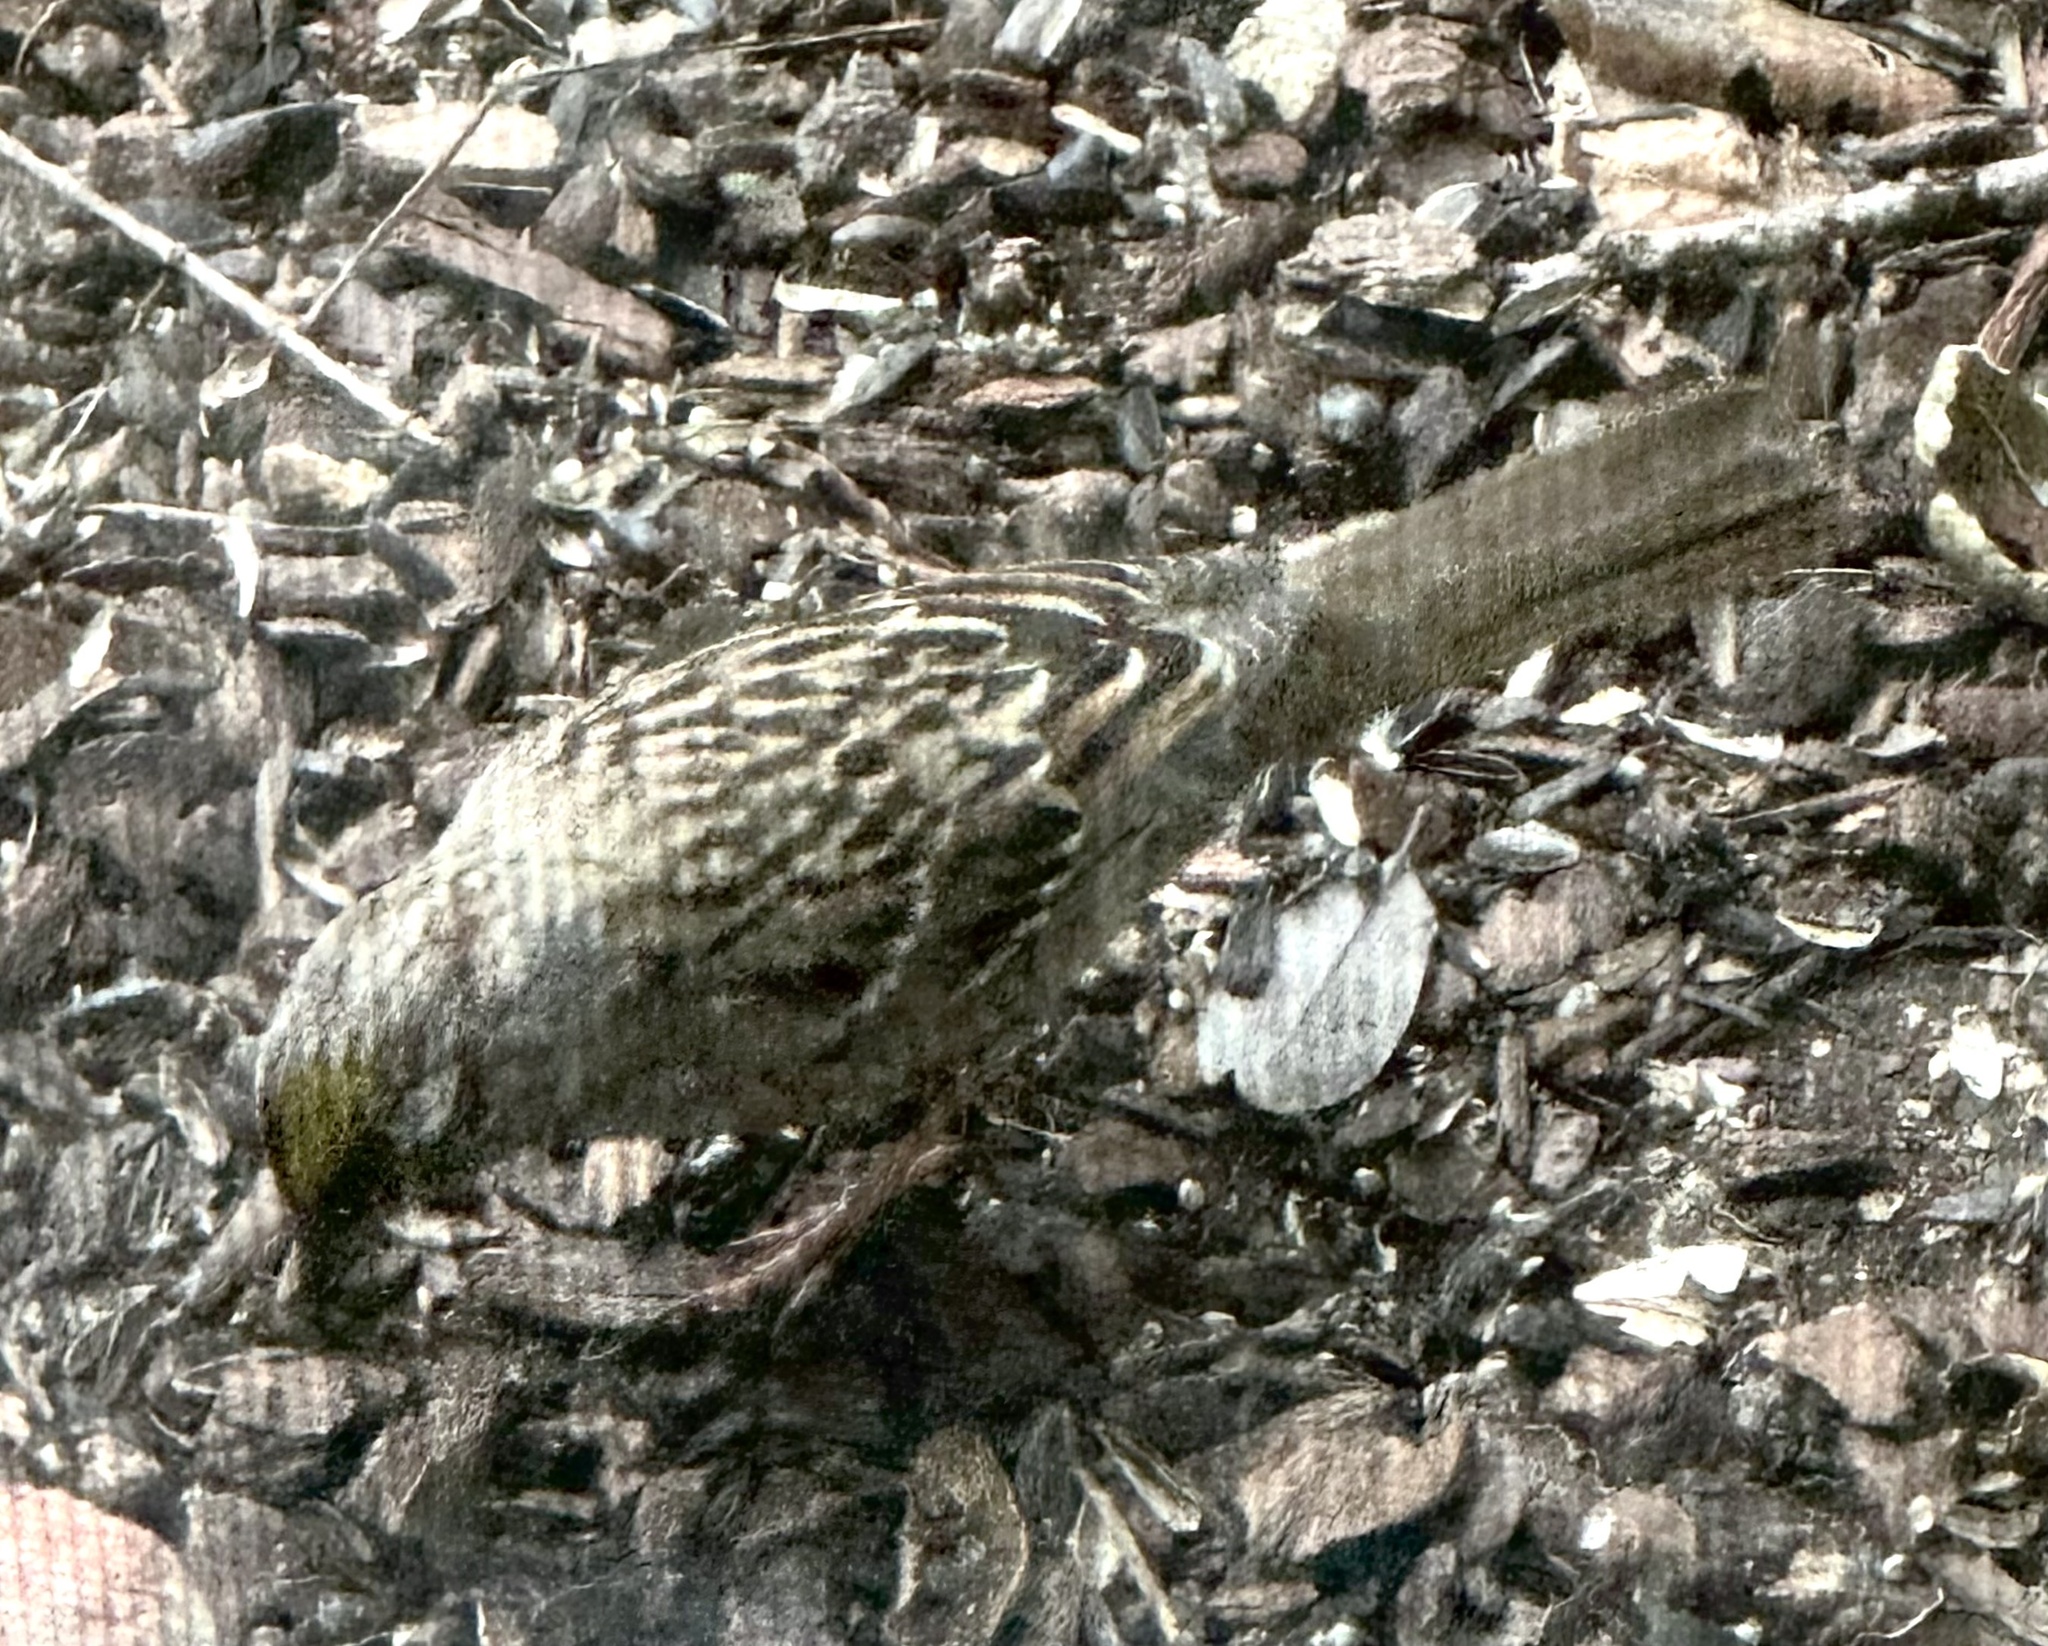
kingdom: Animalia
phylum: Chordata
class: Aves
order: Passeriformes
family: Passerellidae
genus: Zonotrichia
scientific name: Zonotrichia atricapilla
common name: Golden-crowned sparrow
